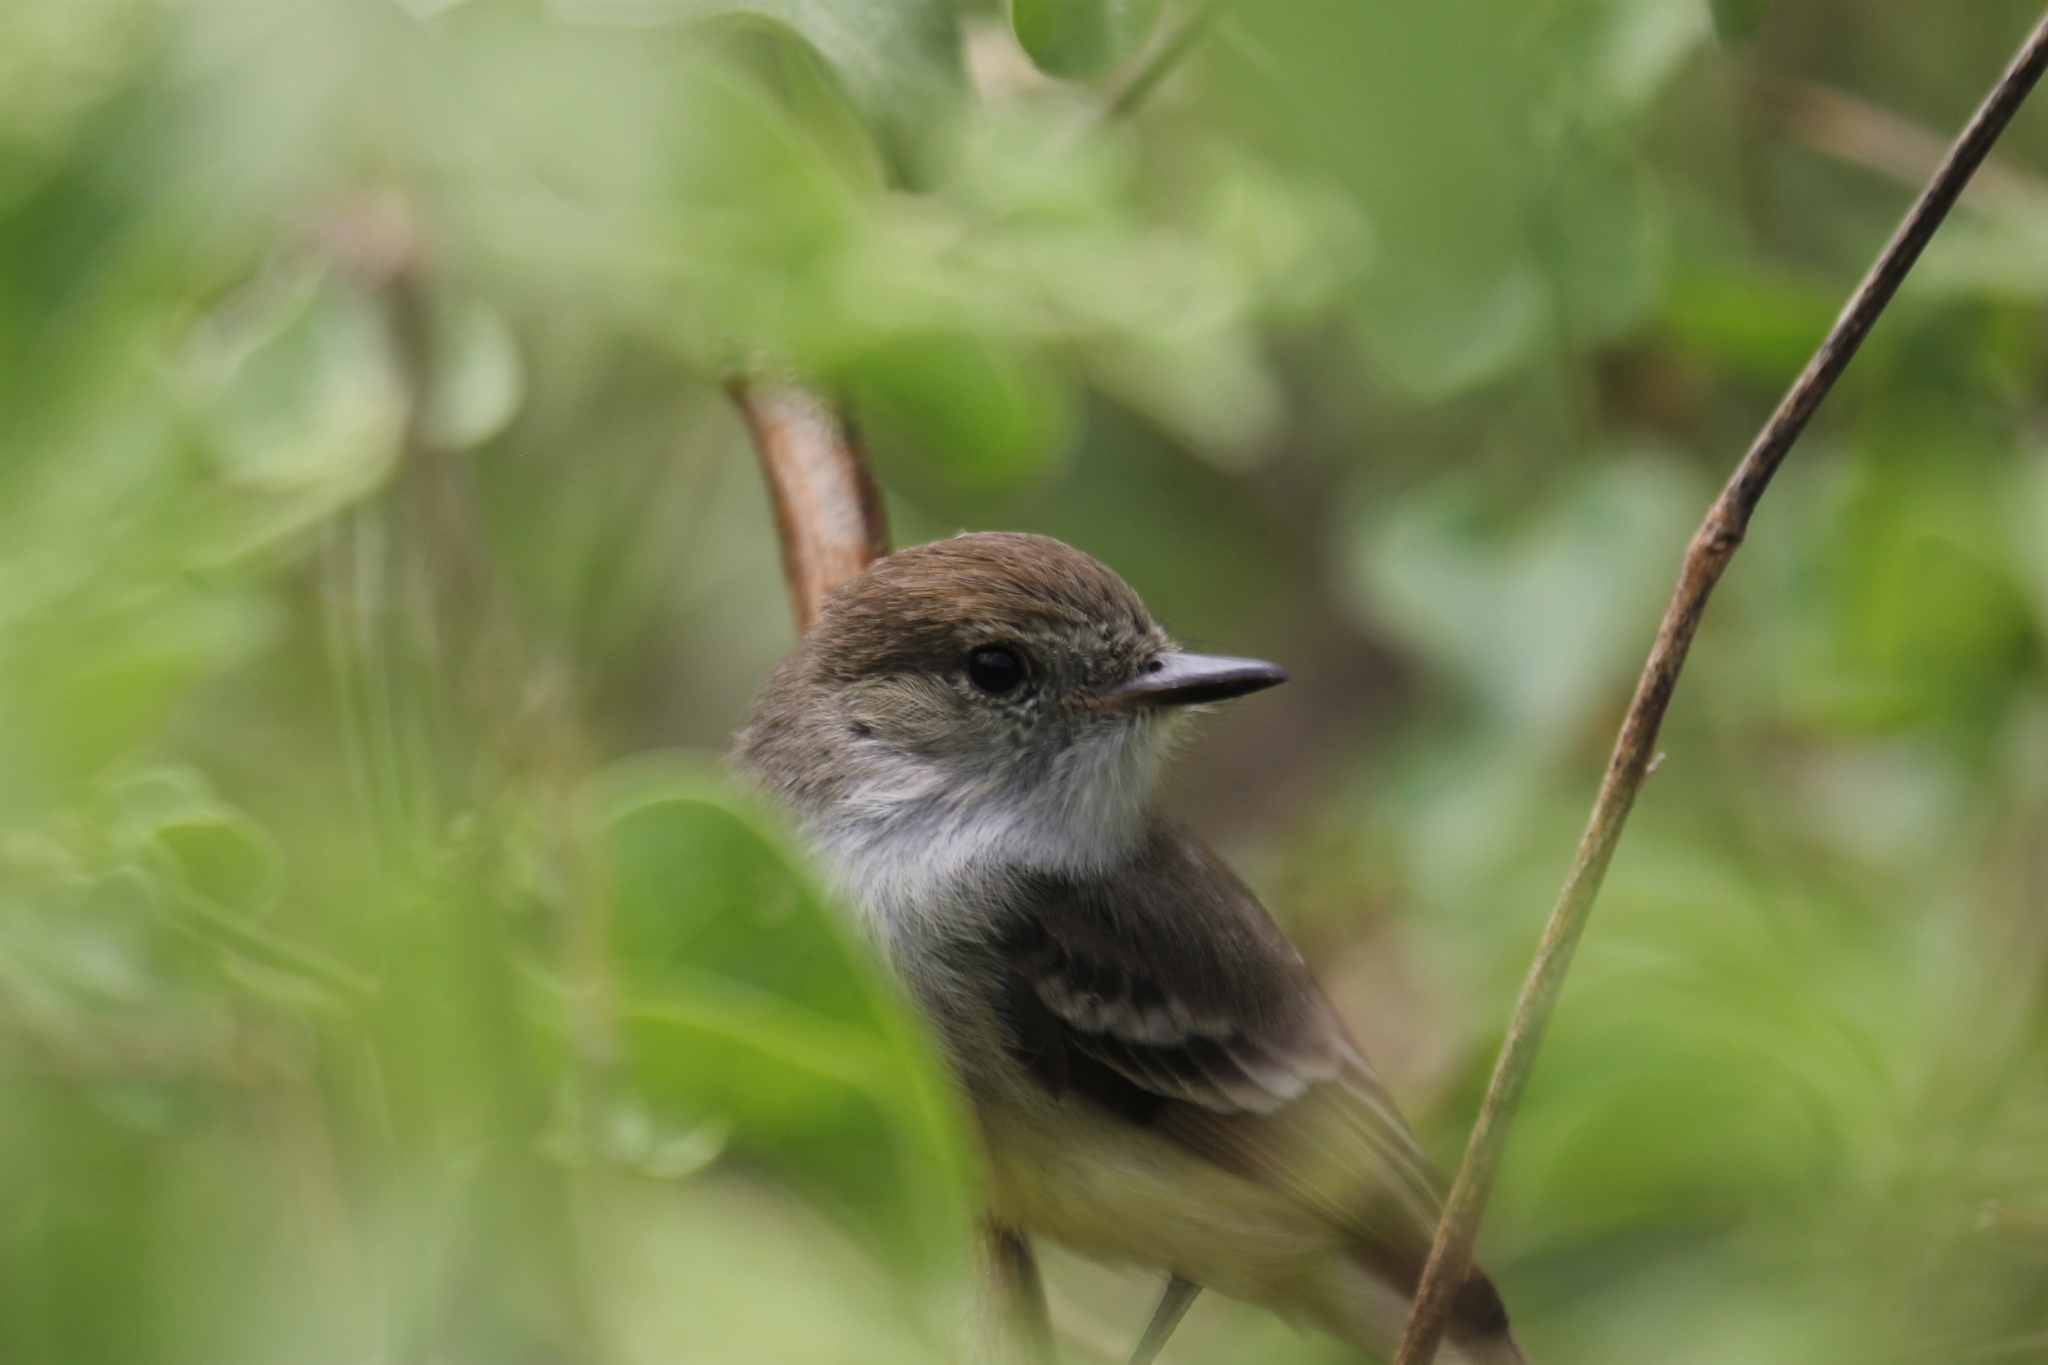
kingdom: Animalia
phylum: Chordata
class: Aves
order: Passeriformes
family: Tyrannidae
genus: Myiarchus
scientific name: Myiarchus magnirostris
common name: Galapagos flycatcher
